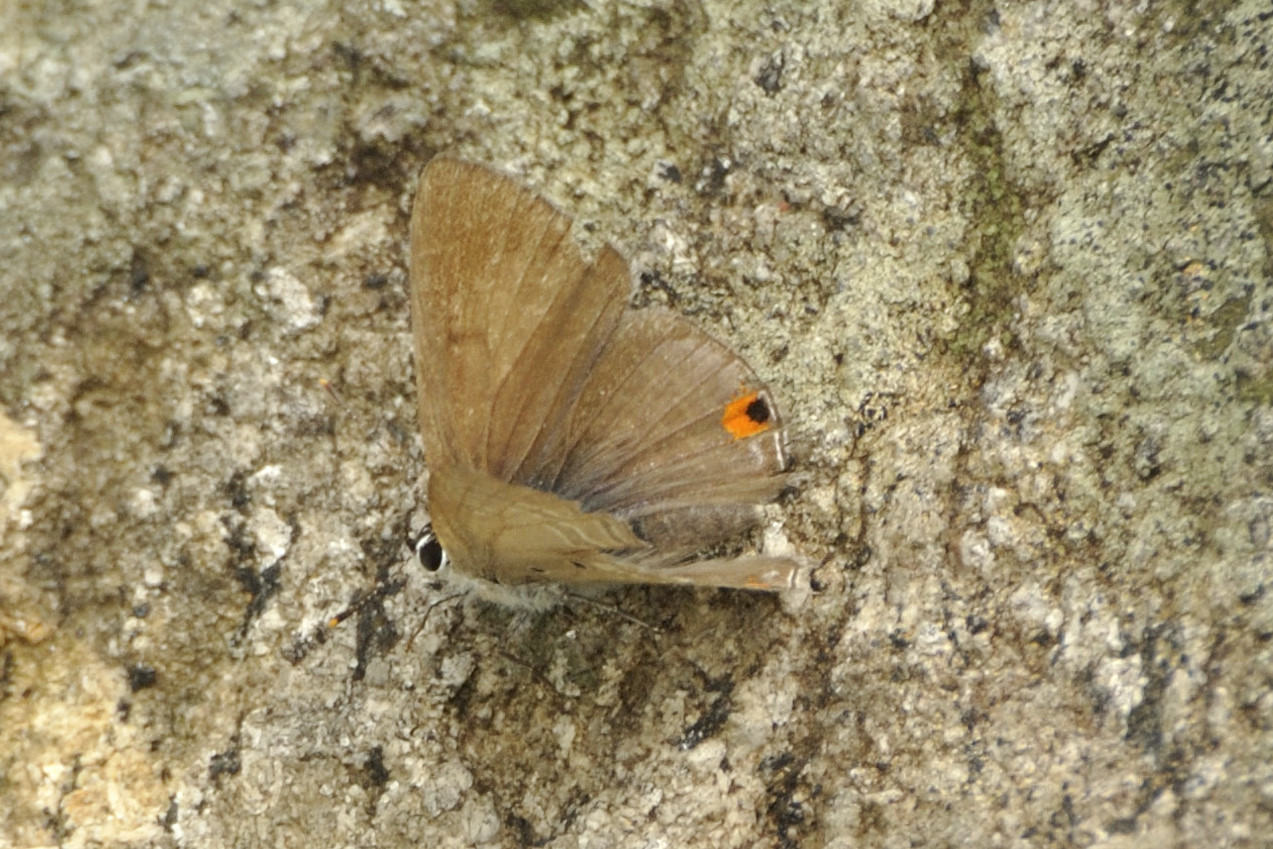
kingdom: Animalia
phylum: Arthropoda
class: Insecta
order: Lepidoptera
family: Lycaenidae
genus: Anthene
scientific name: Anthene lunulata
